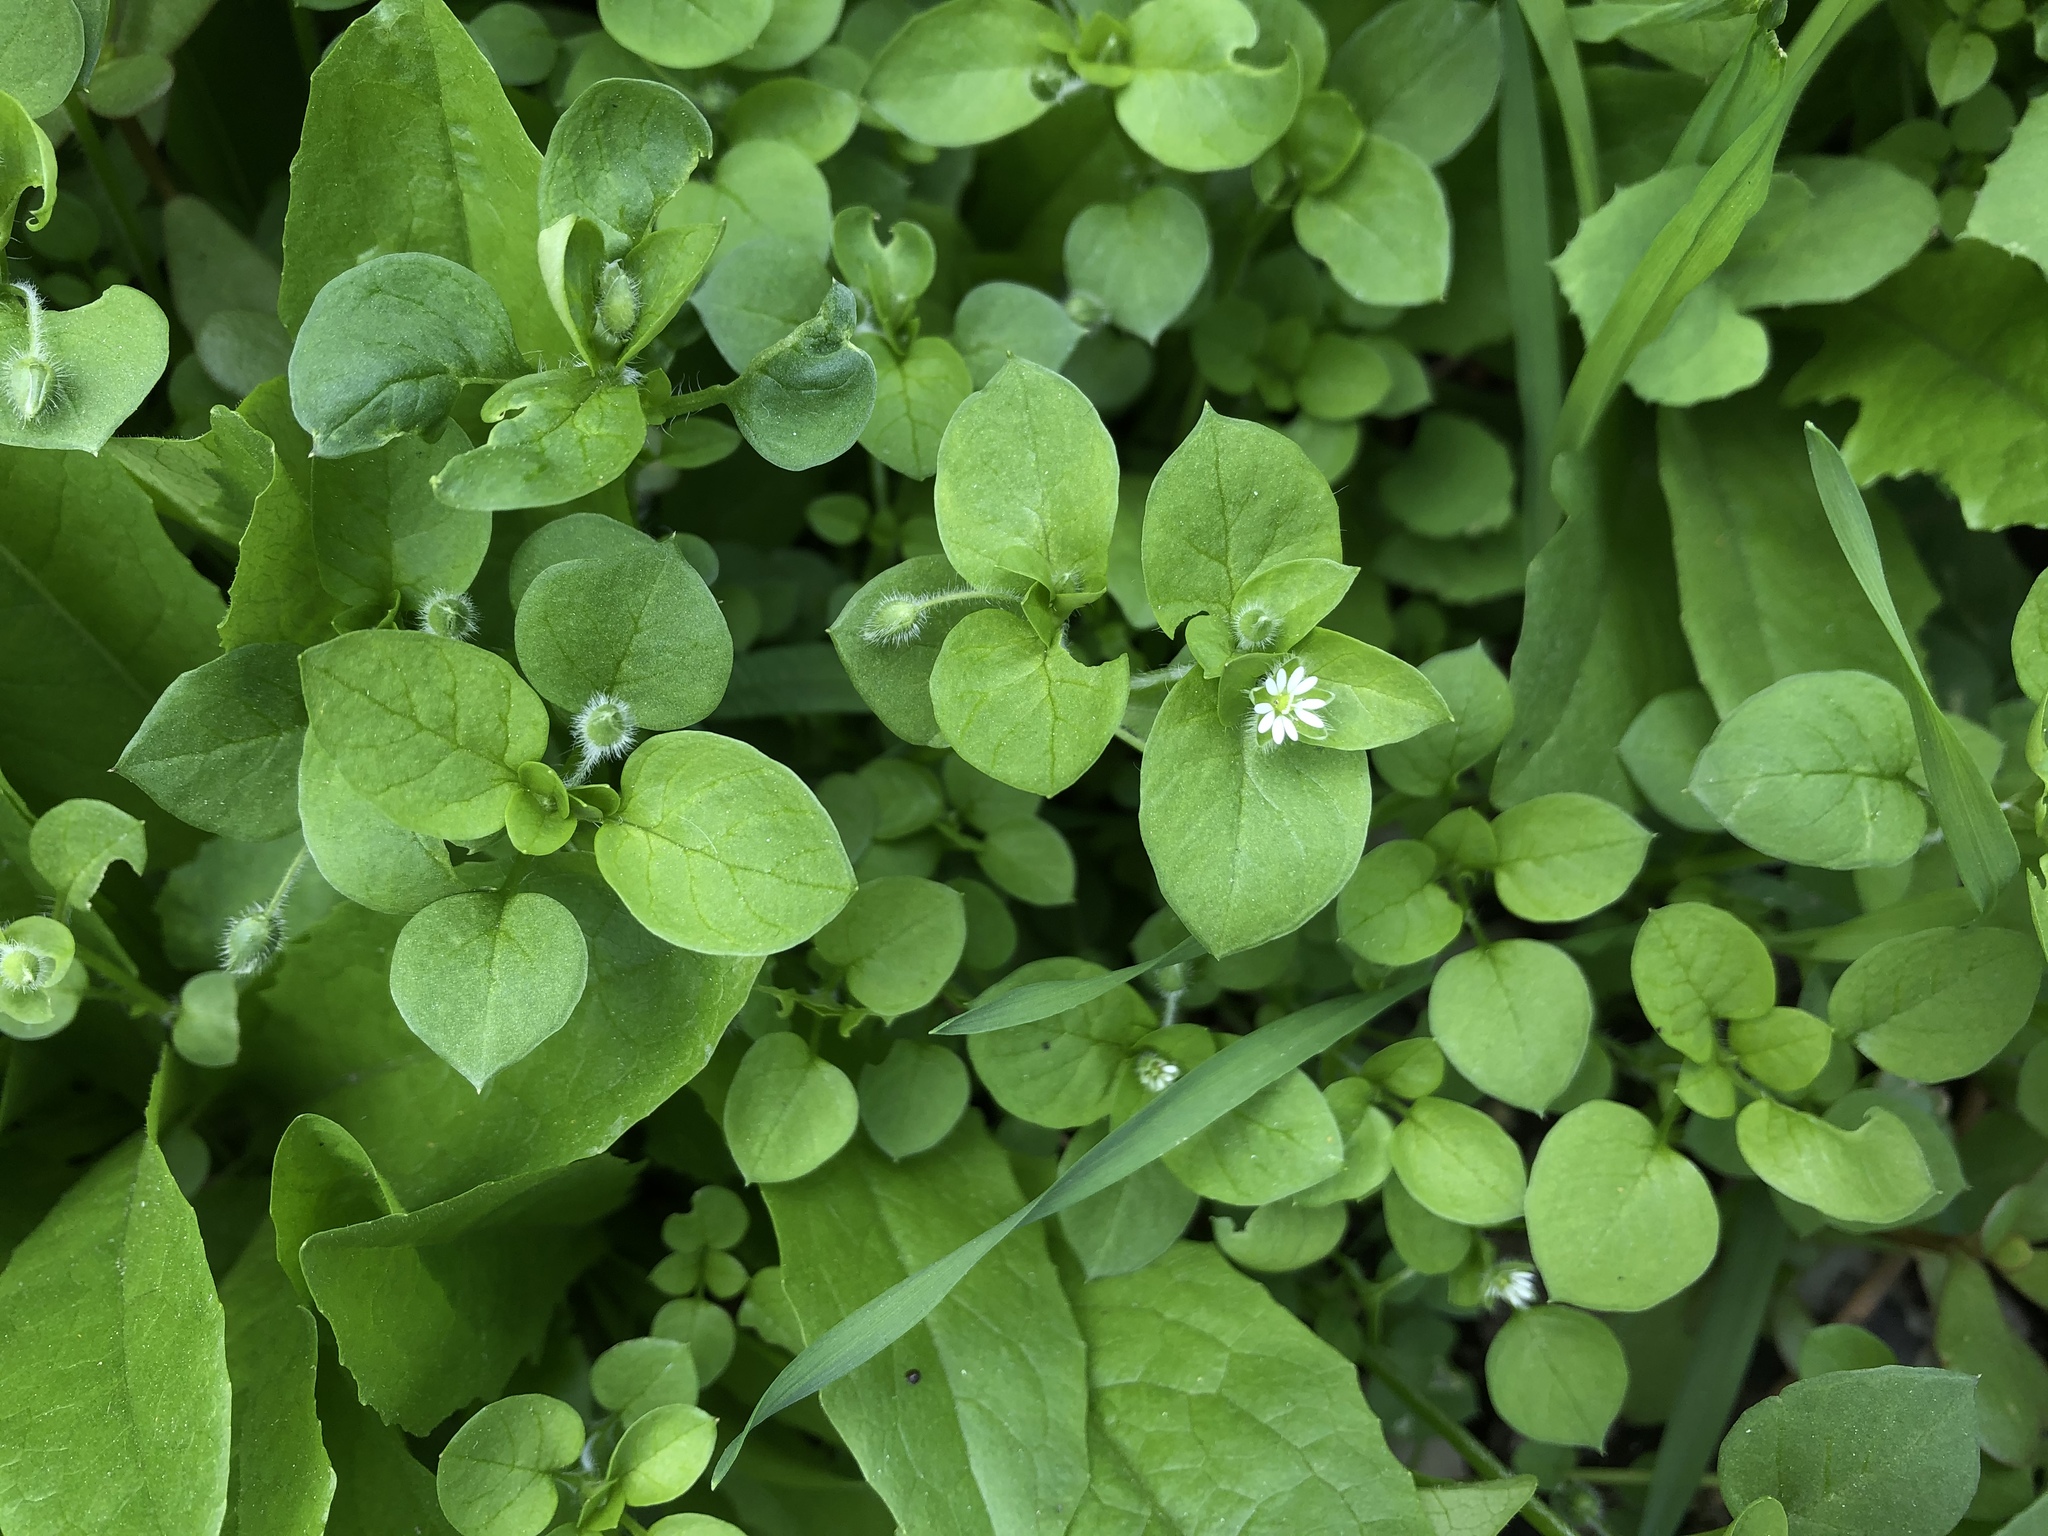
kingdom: Plantae
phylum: Tracheophyta
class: Magnoliopsida
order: Caryophyllales
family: Caryophyllaceae
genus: Stellaria
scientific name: Stellaria media
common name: Common chickweed
